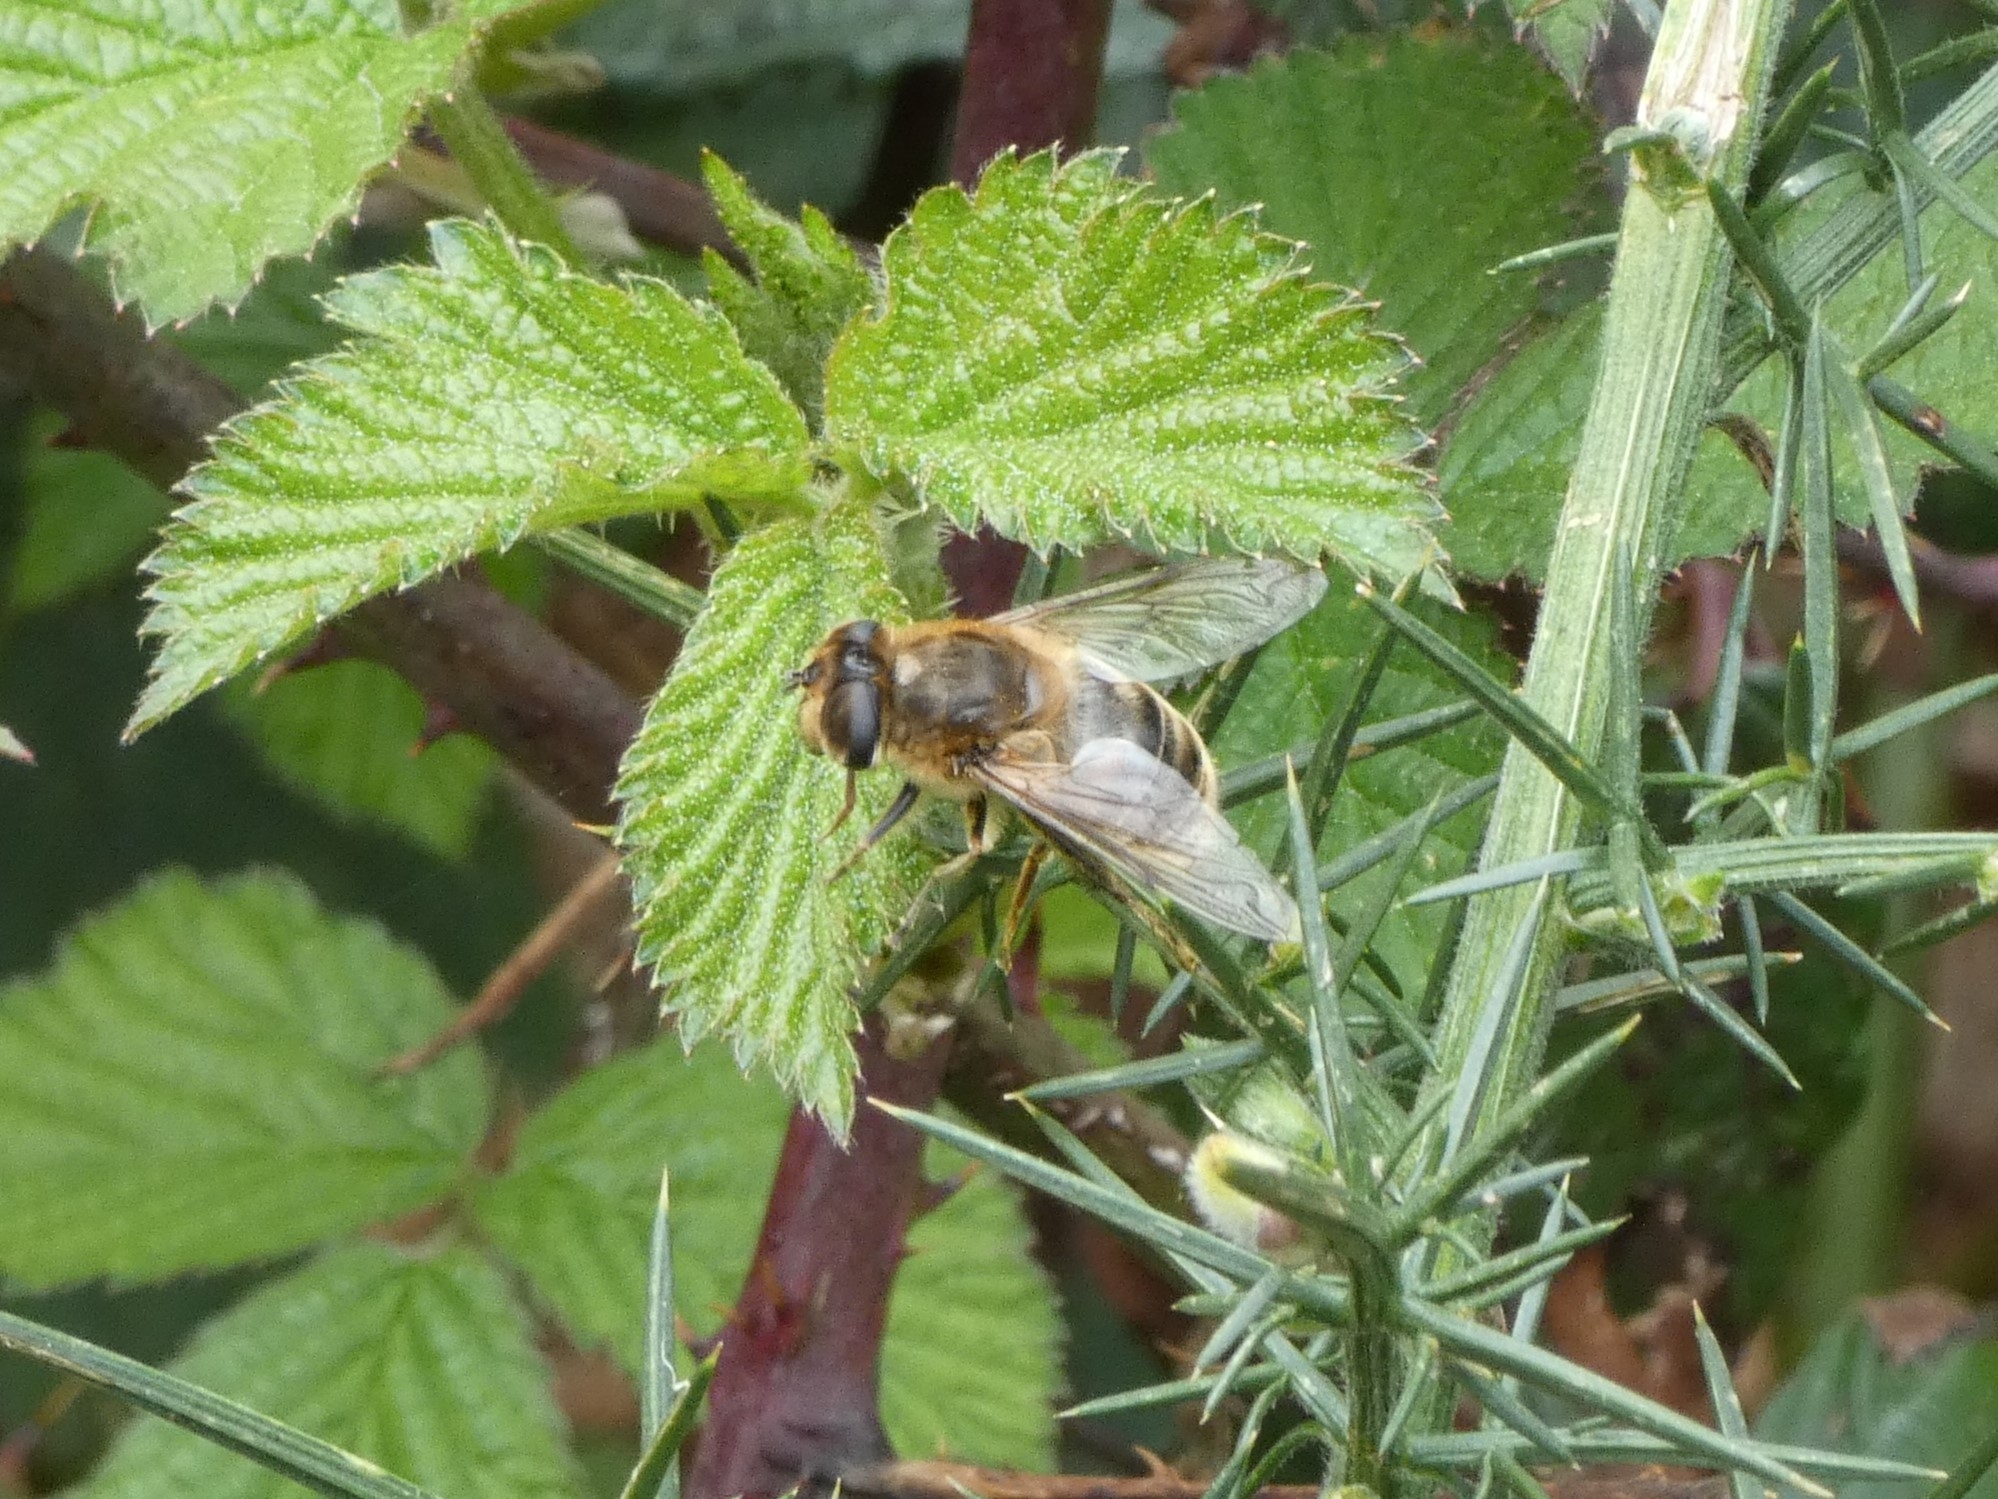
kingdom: Animalia
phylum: Arthropoda
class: Insecta
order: Diptera
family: Syrphidae
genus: Eristalis
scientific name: Eristalis tenax
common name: Drone fly
